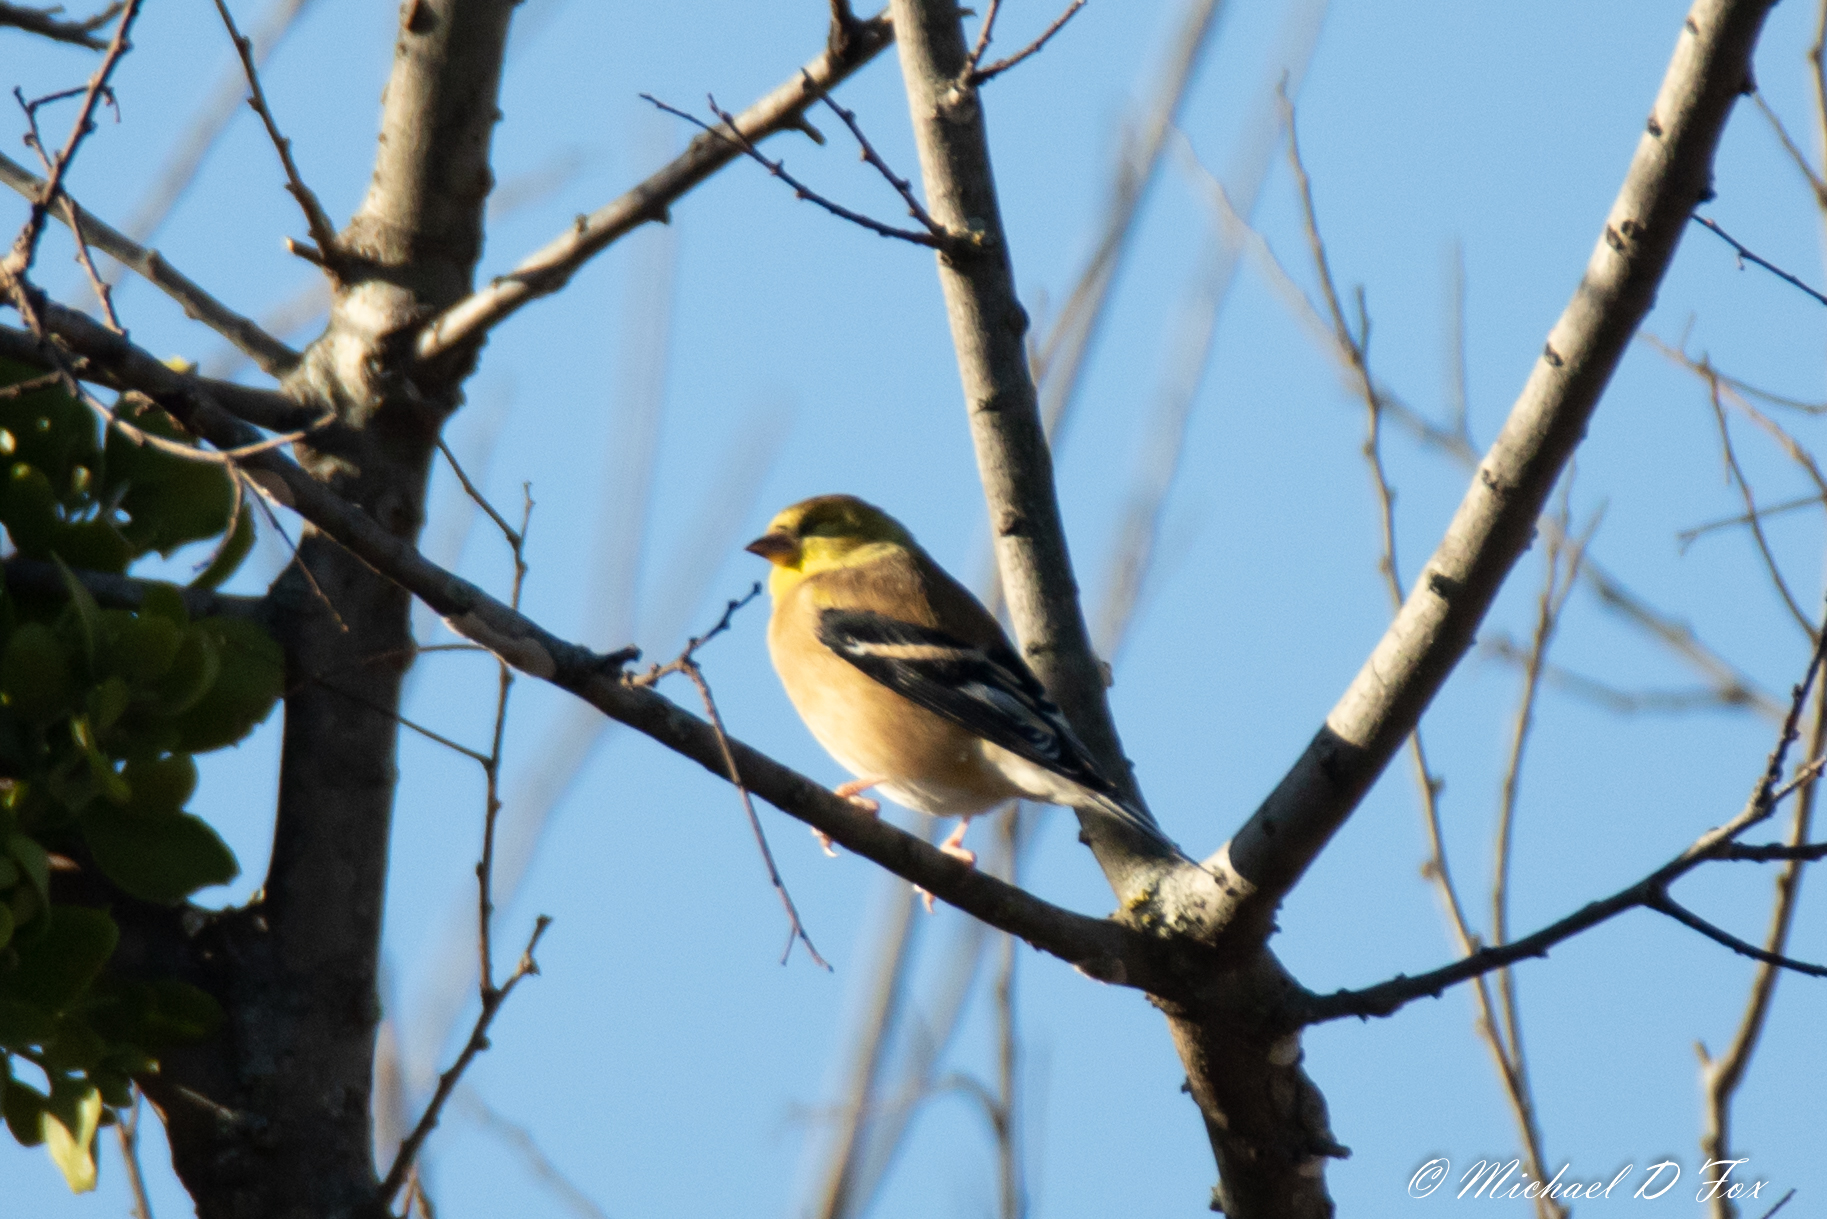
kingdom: Animalia
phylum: Chordata
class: Aves
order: Passeriformes
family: Fringillidae
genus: Spinus
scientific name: Spinus tristis
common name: American goldfinch
